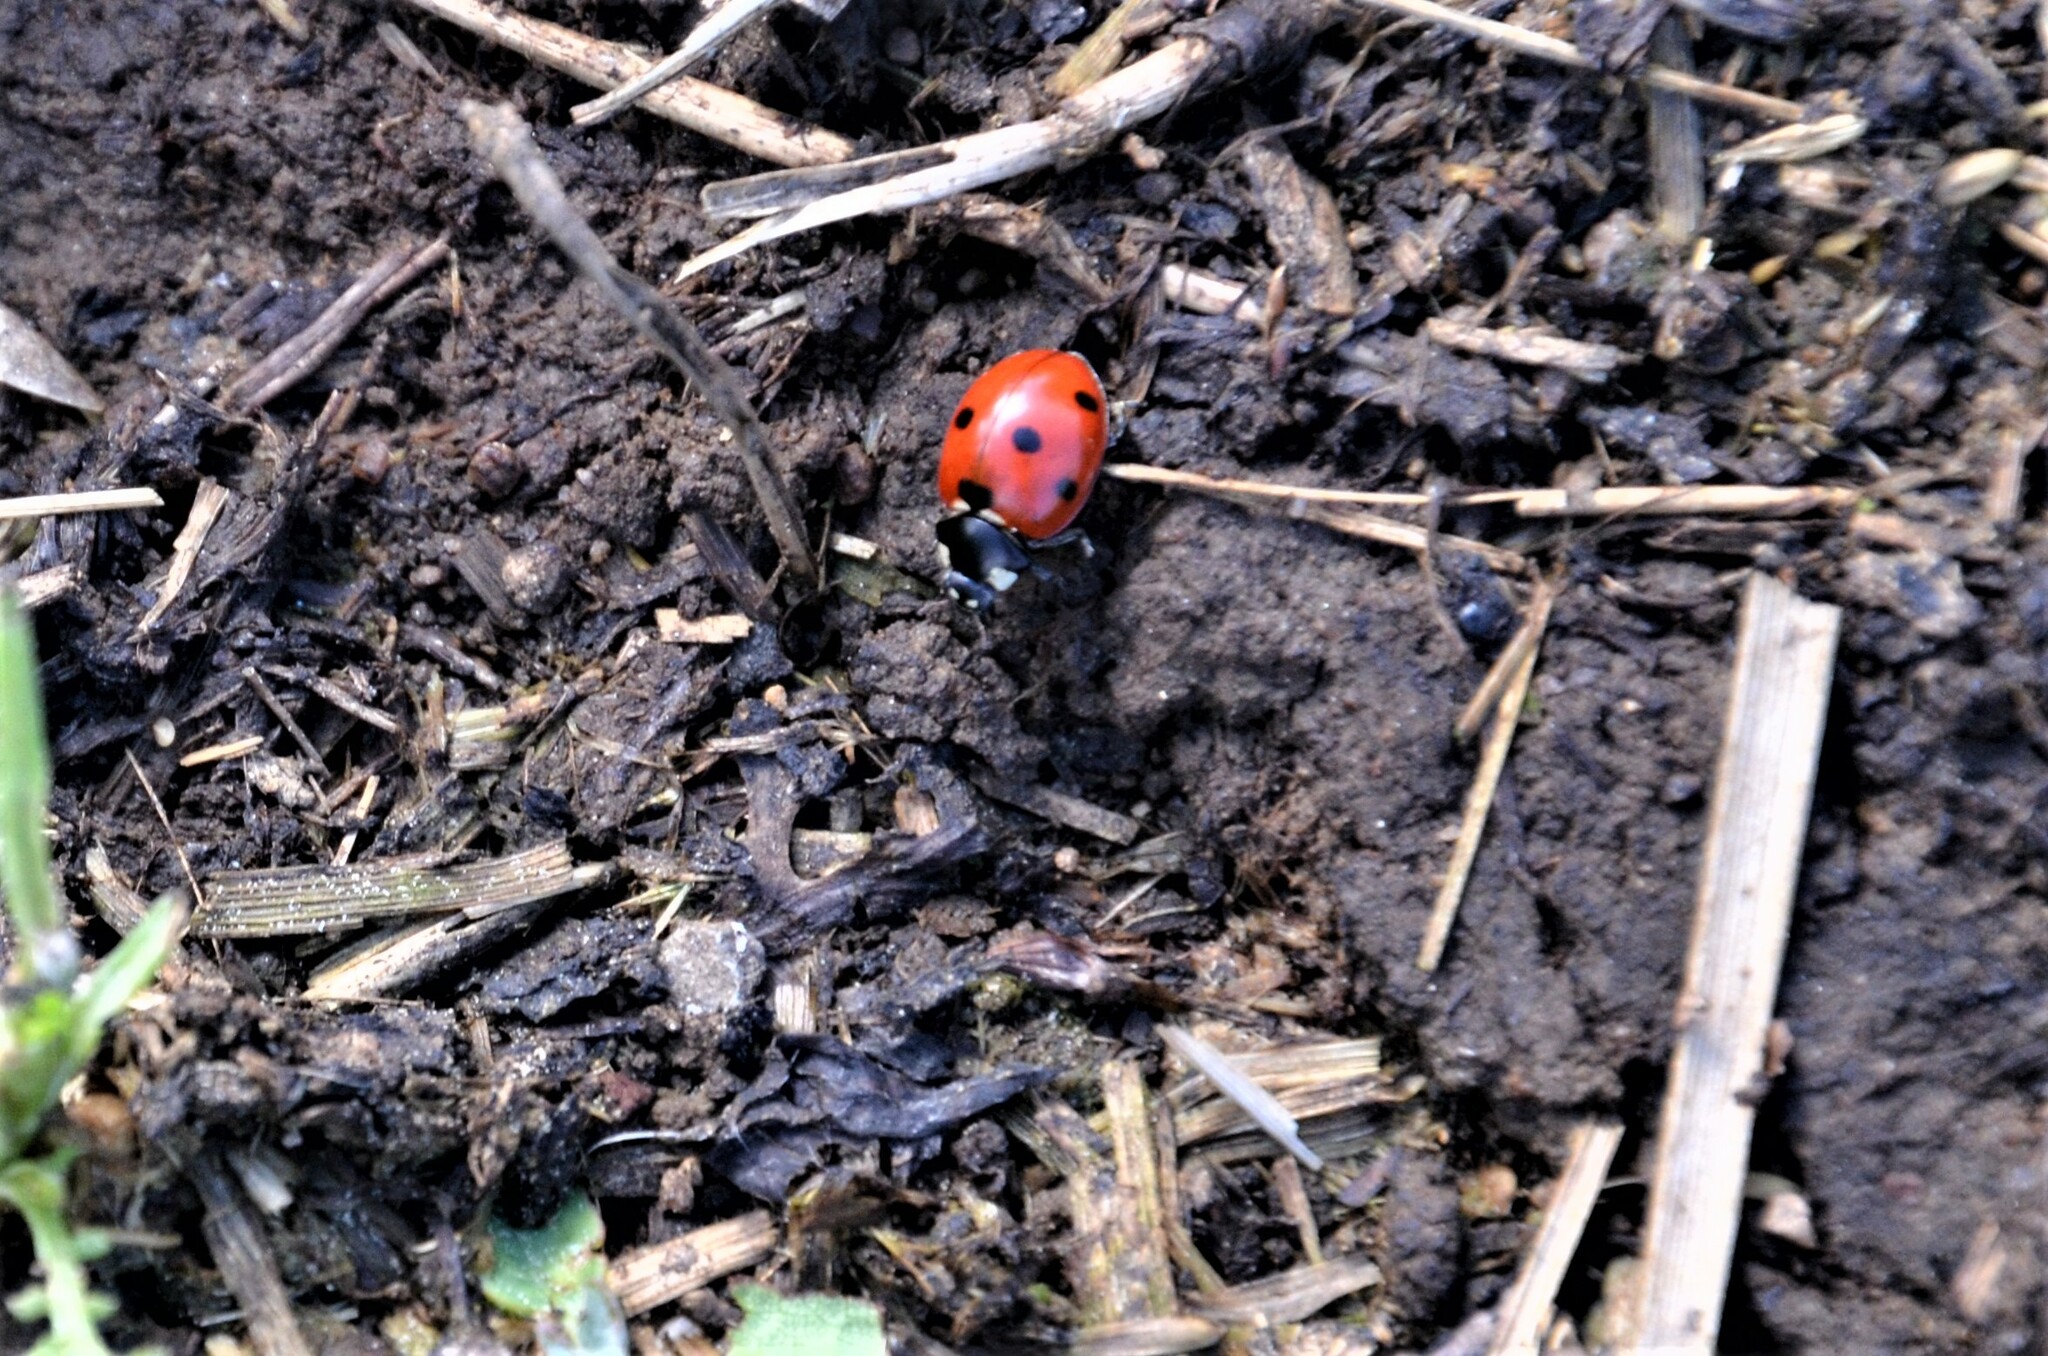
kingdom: Animalia
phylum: Arthropoda
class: Insecta
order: Coleoptera
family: Coccinellidae
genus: Coccinella
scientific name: Coccinella septempunctata
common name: Sevenspotted lady beetle
